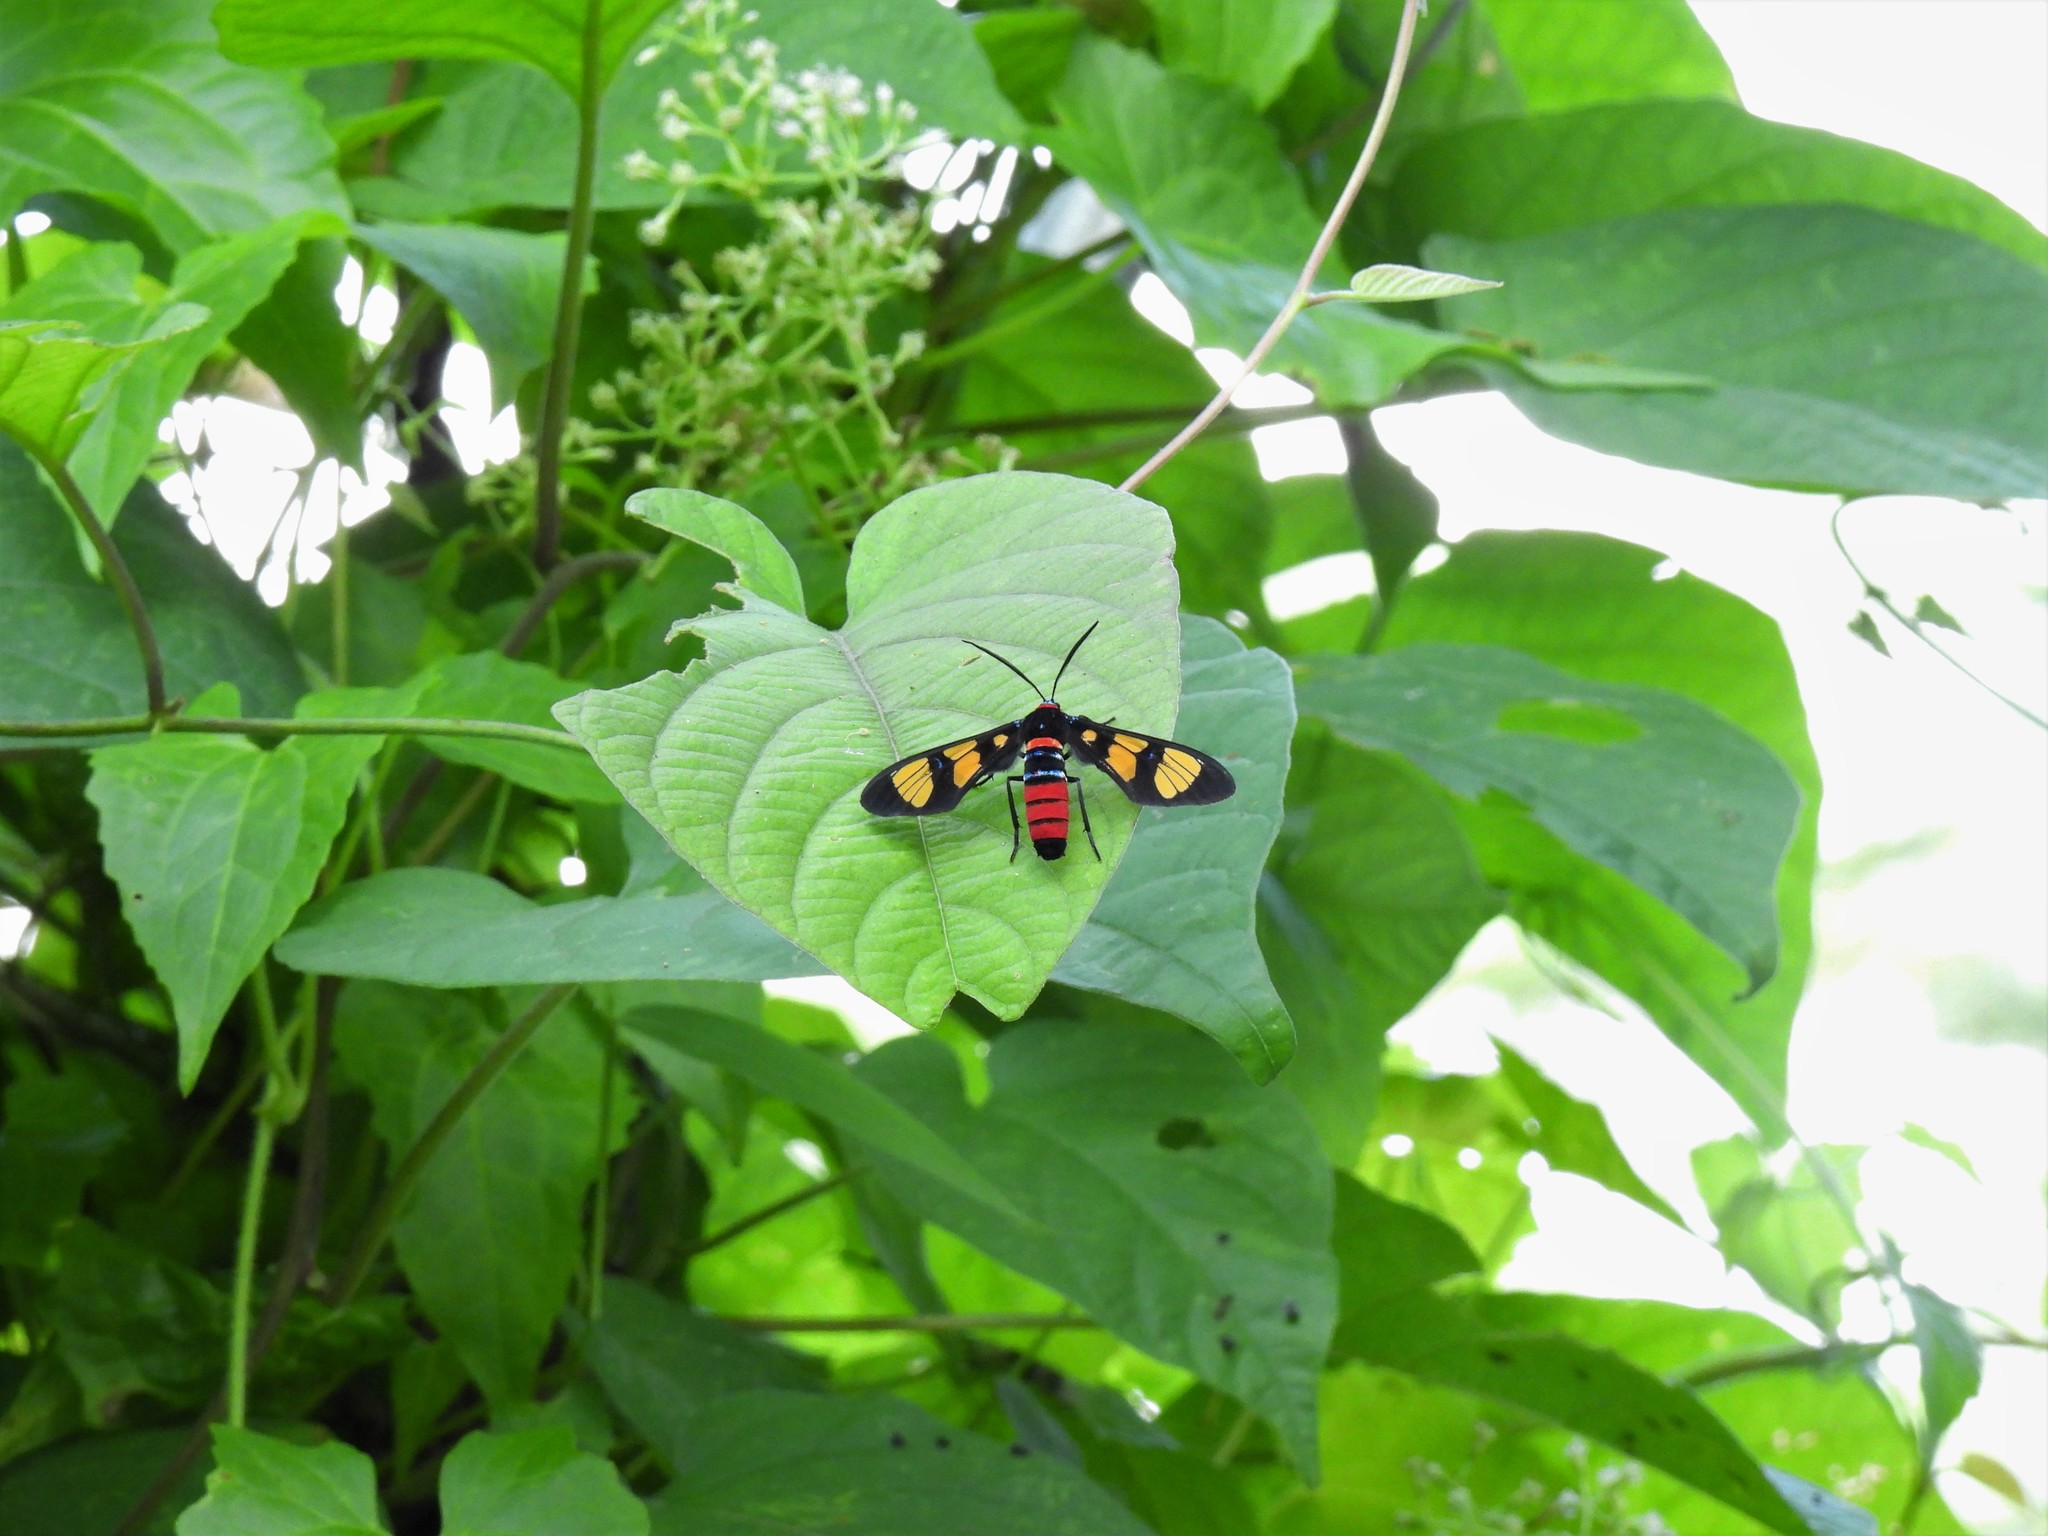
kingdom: Animalia
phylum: Arthropoda
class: Insecta
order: Lepidoptera
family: Erebidae
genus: Euchromia
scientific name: Euchromia polymena
